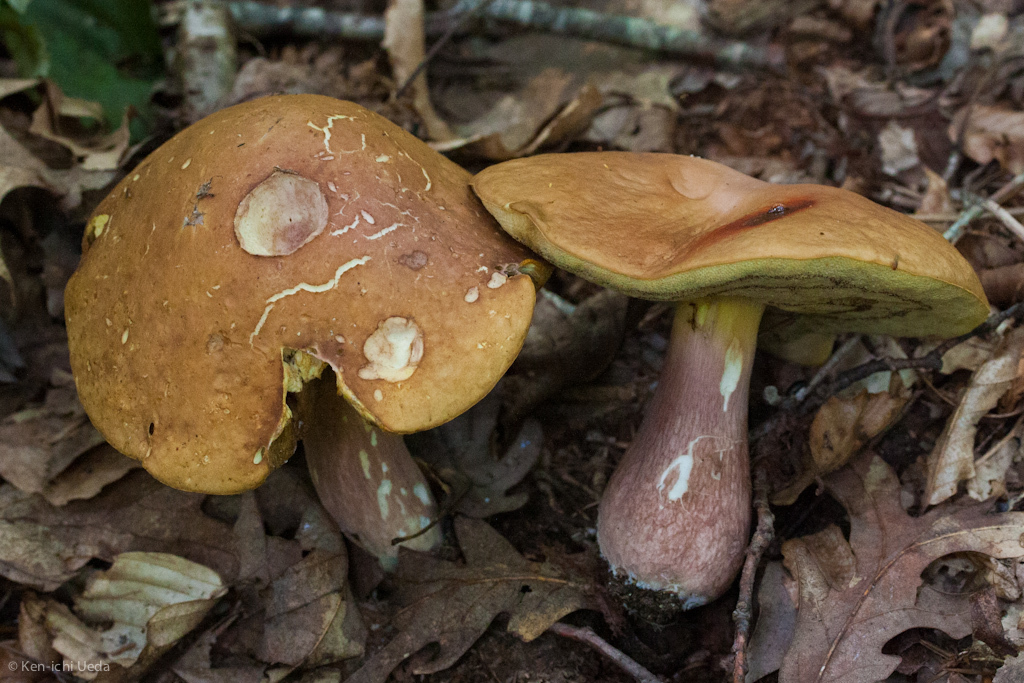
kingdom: Fungi
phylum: Basidiomycota
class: Agaricomycetes
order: Boletales
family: Boletaceae
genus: Xanthoconium
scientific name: Xanthoconium separans
